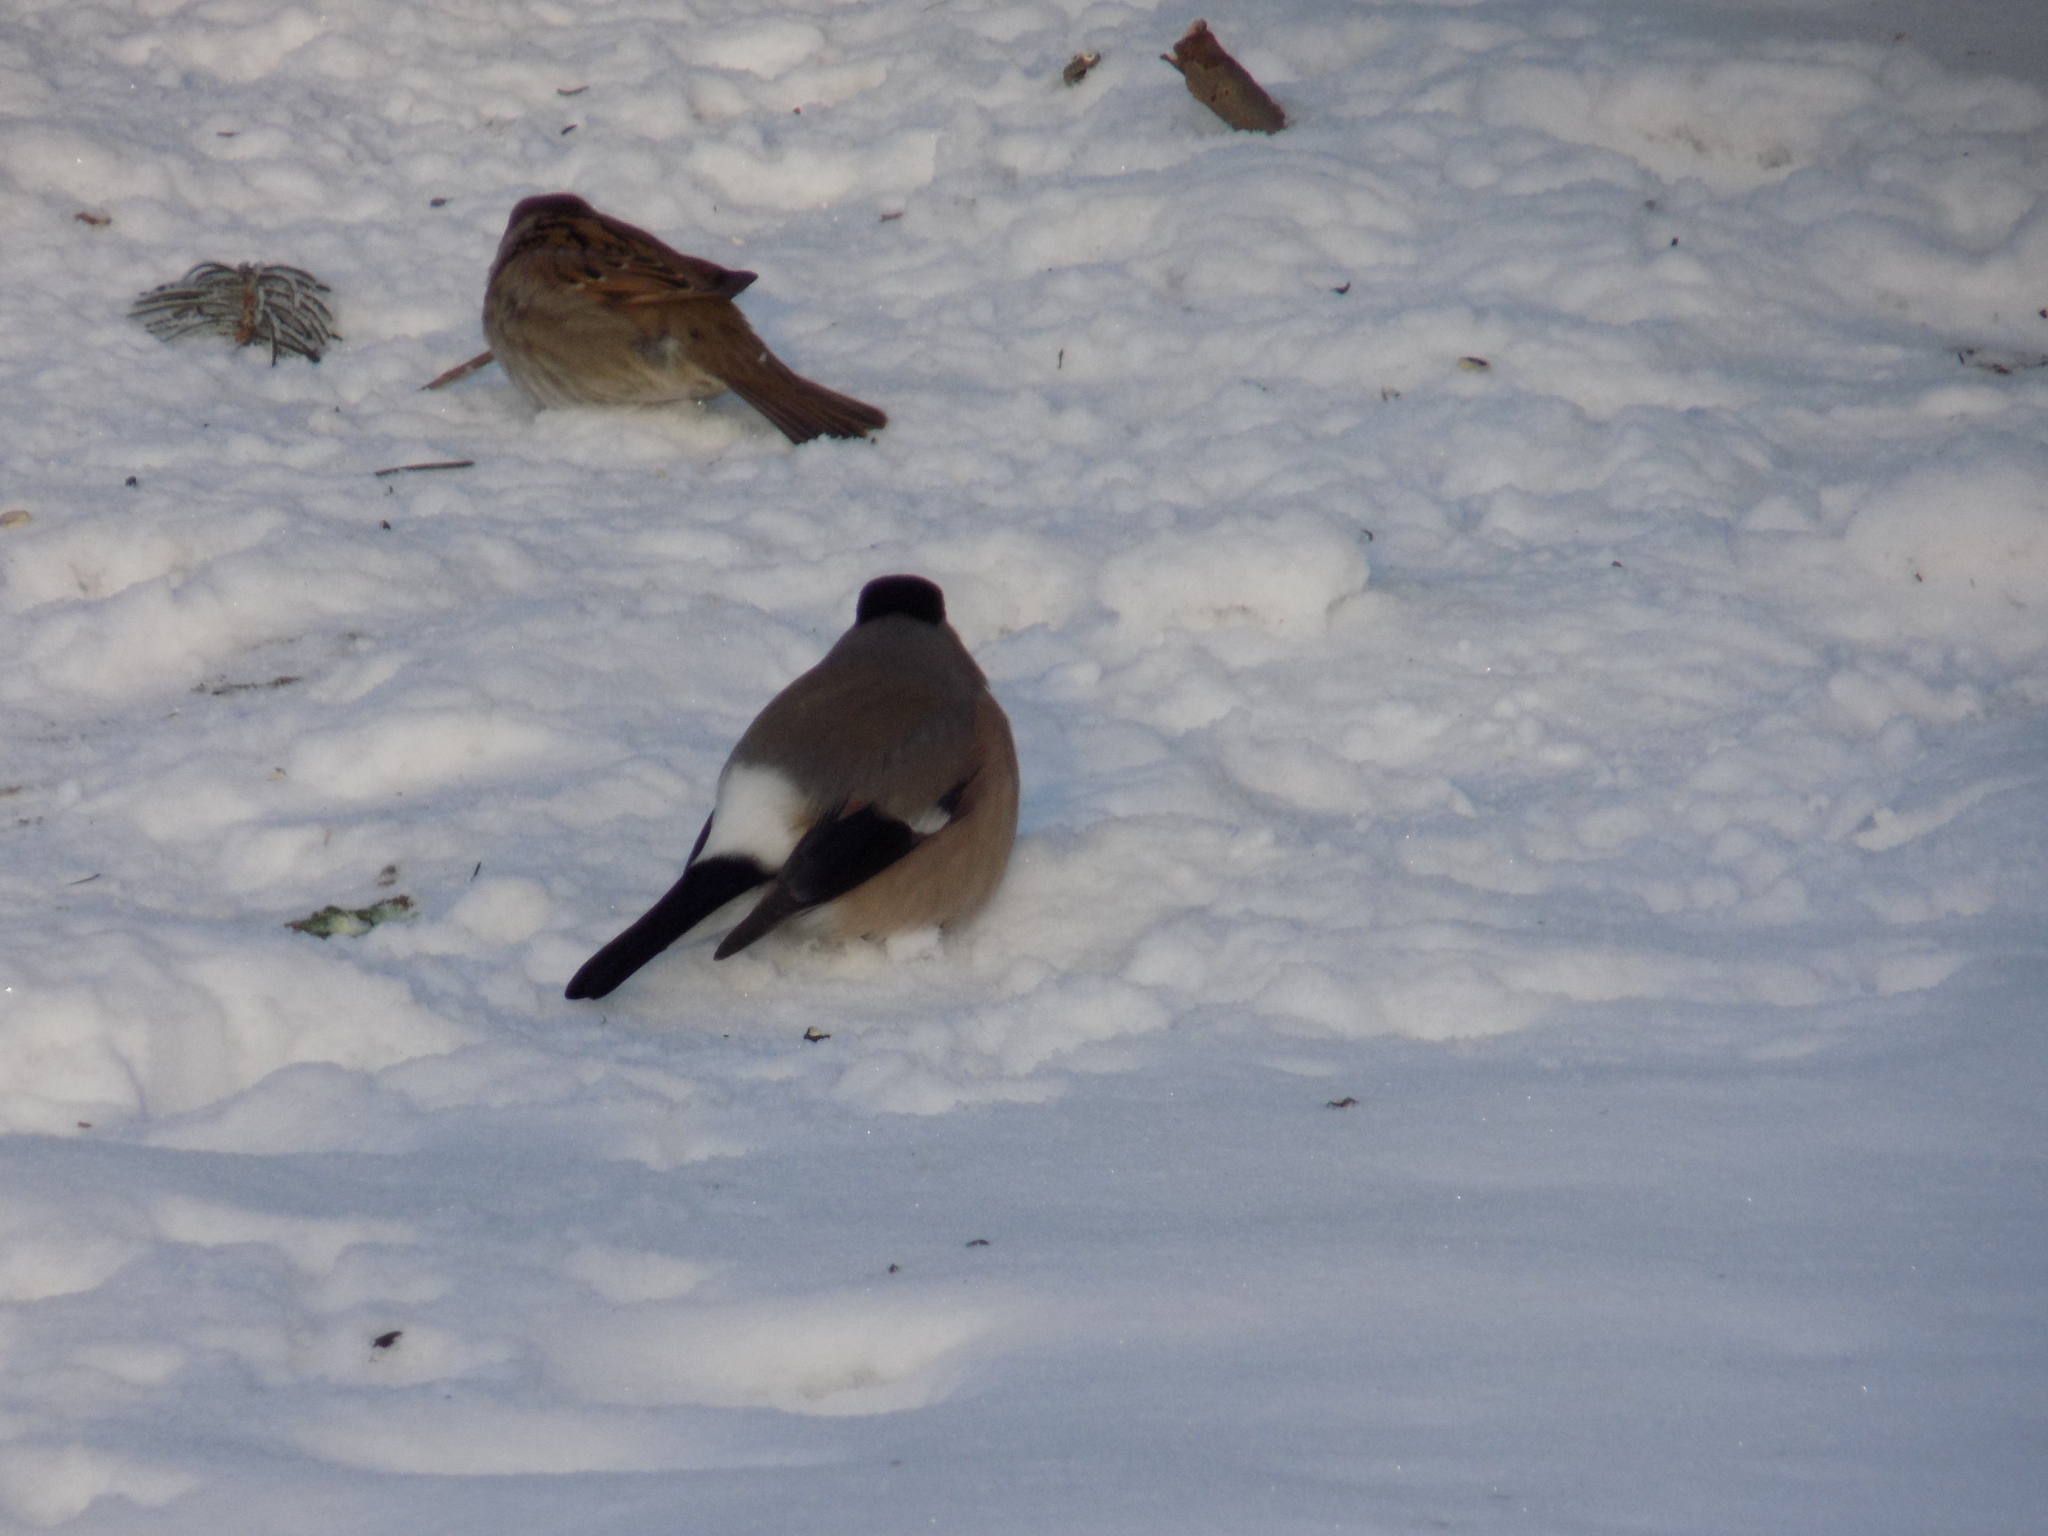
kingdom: Animalia
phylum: Chordata
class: Aves
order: Passeriformes
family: Fringillidae
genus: Pyrrhula
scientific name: Pyrrhula pyrrhula
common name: Eurasian bullfinch
